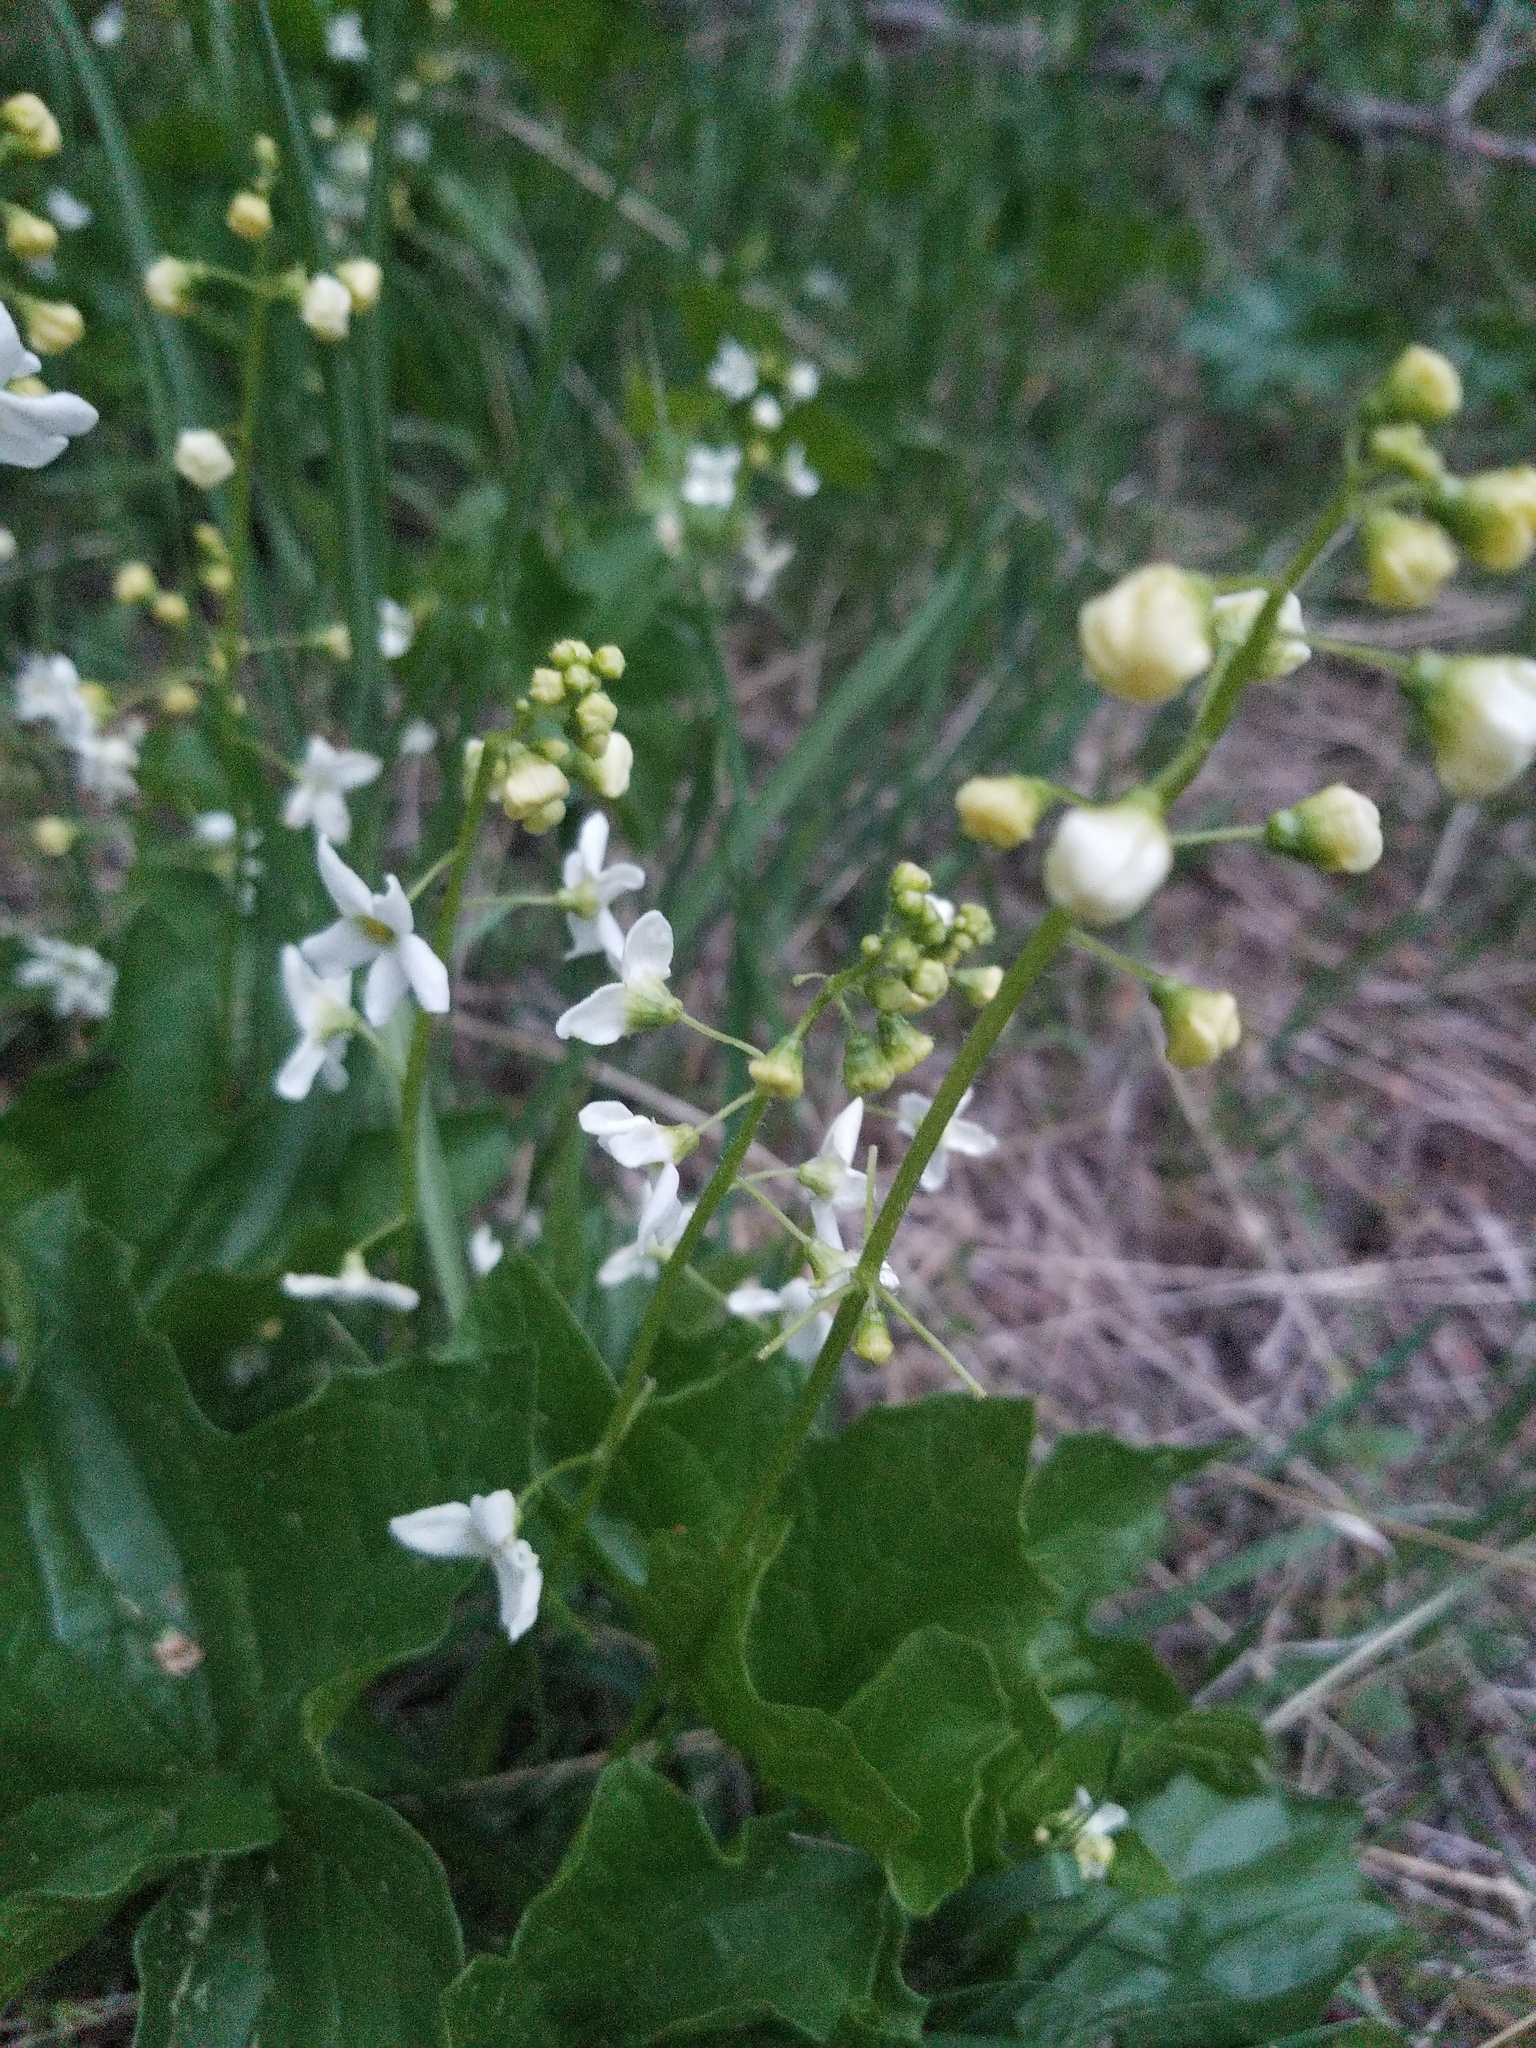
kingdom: Plantae
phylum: Tracheophyta
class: Magnoliopsida
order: Cucurbitales
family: Cucurbitaceae
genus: Marah
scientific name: Marah oregana
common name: Coastal manroot
